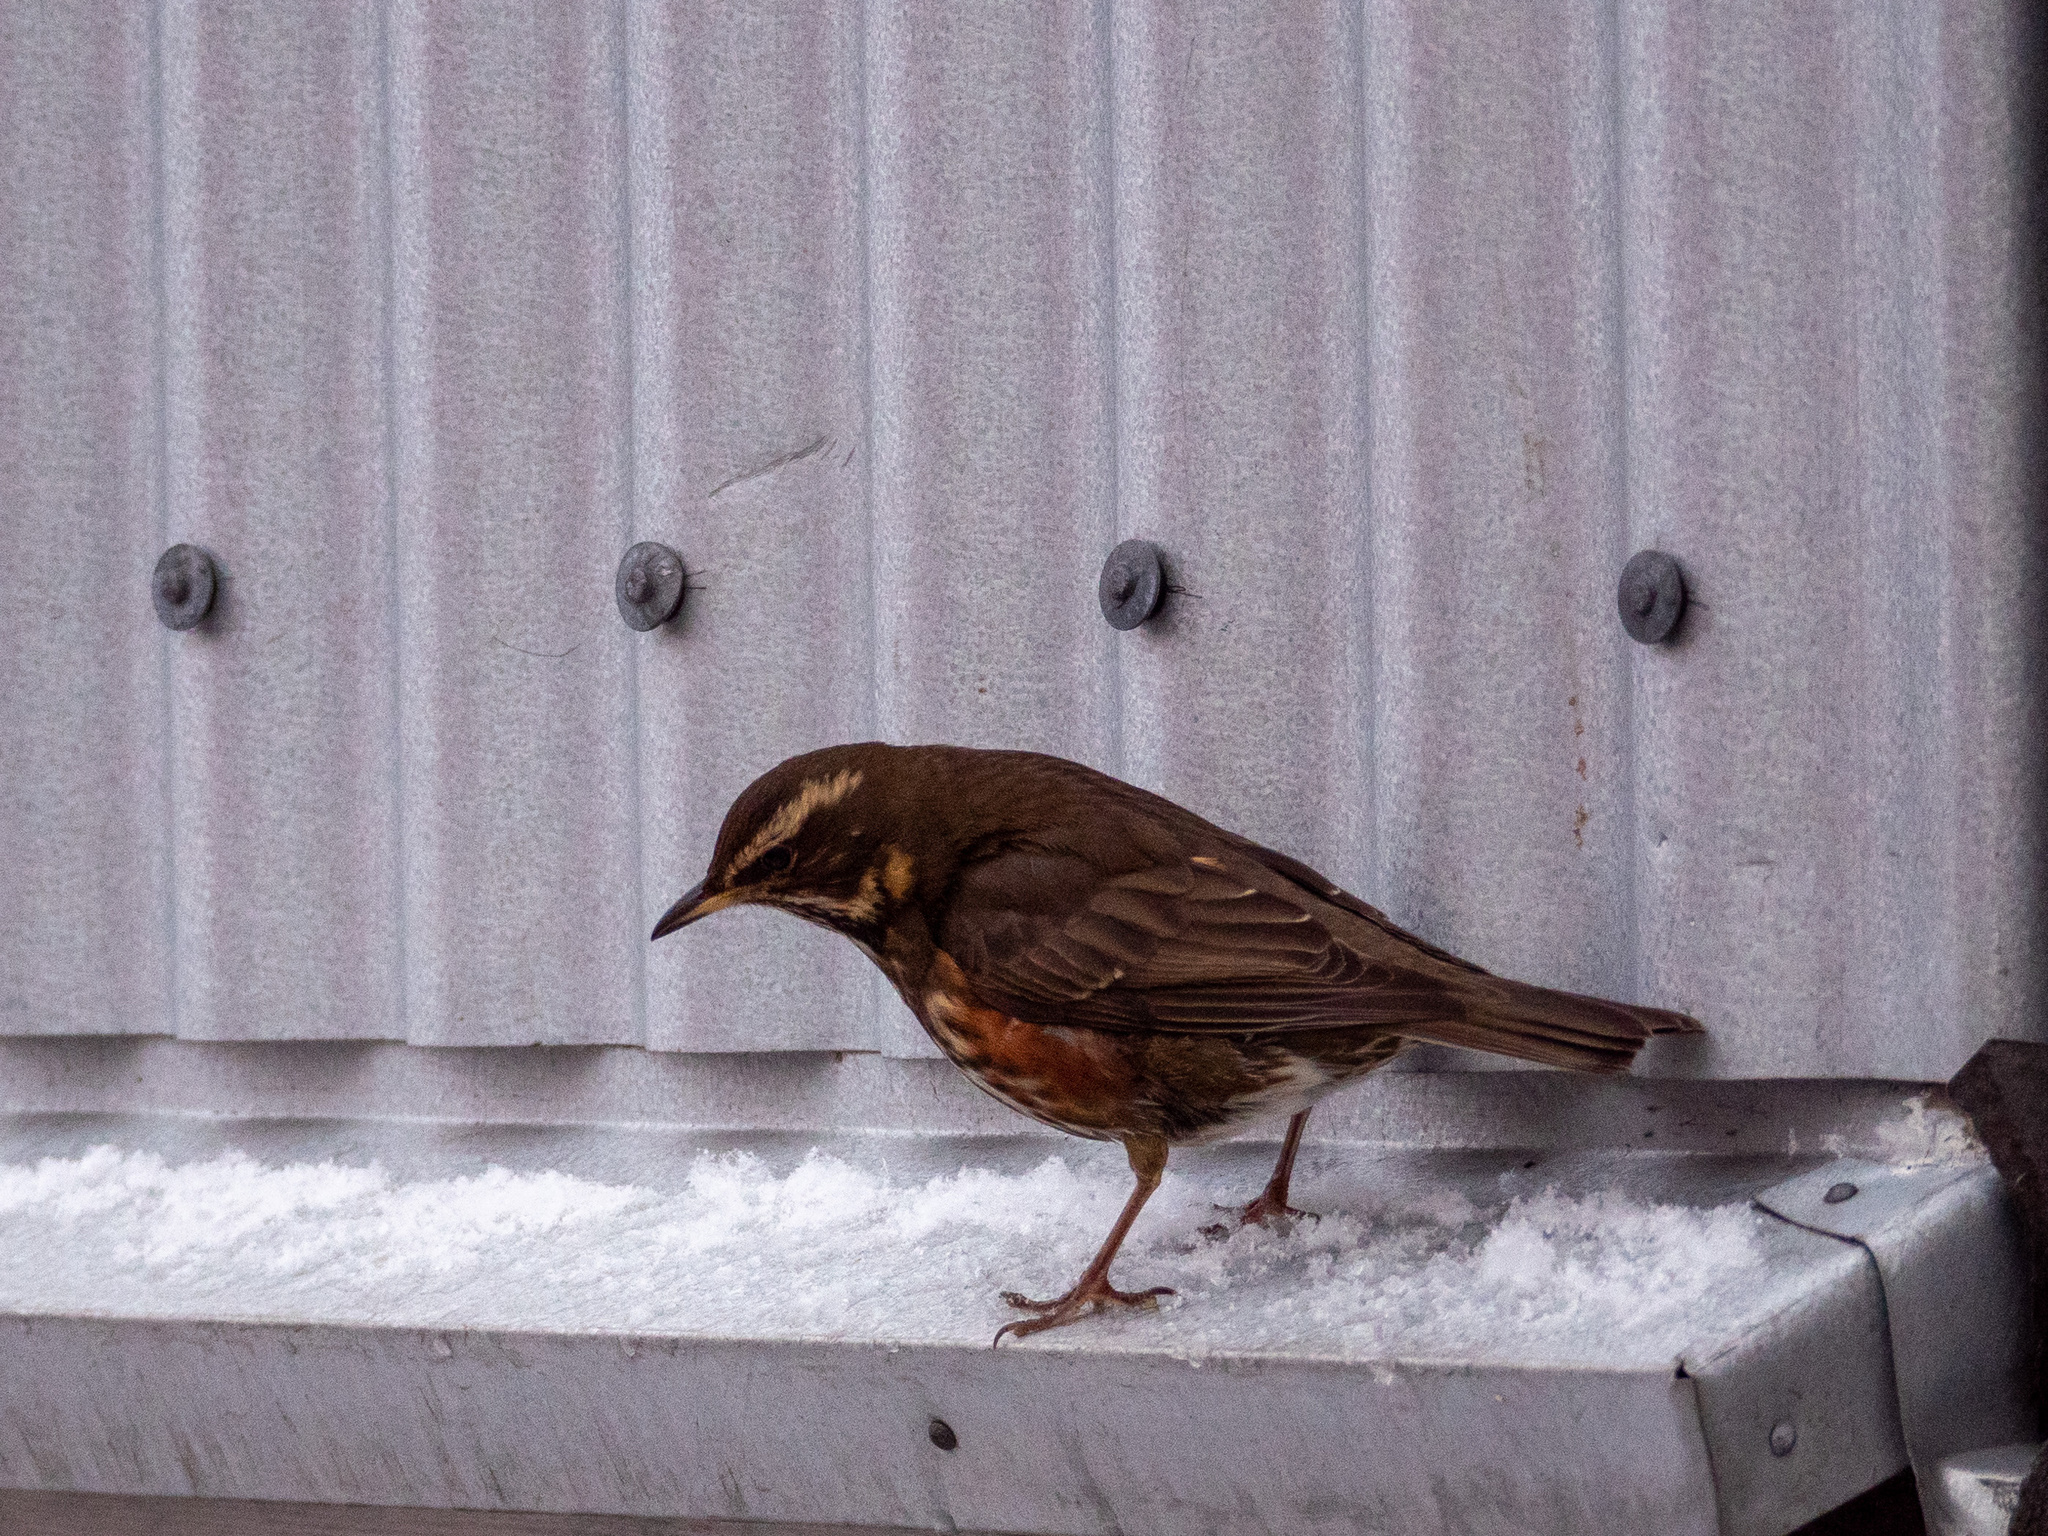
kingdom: Animalia
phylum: Chordata
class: Aves
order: Passeriformes
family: Turdidae
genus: Turdus
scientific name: Turdus iliacus
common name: Redwing
